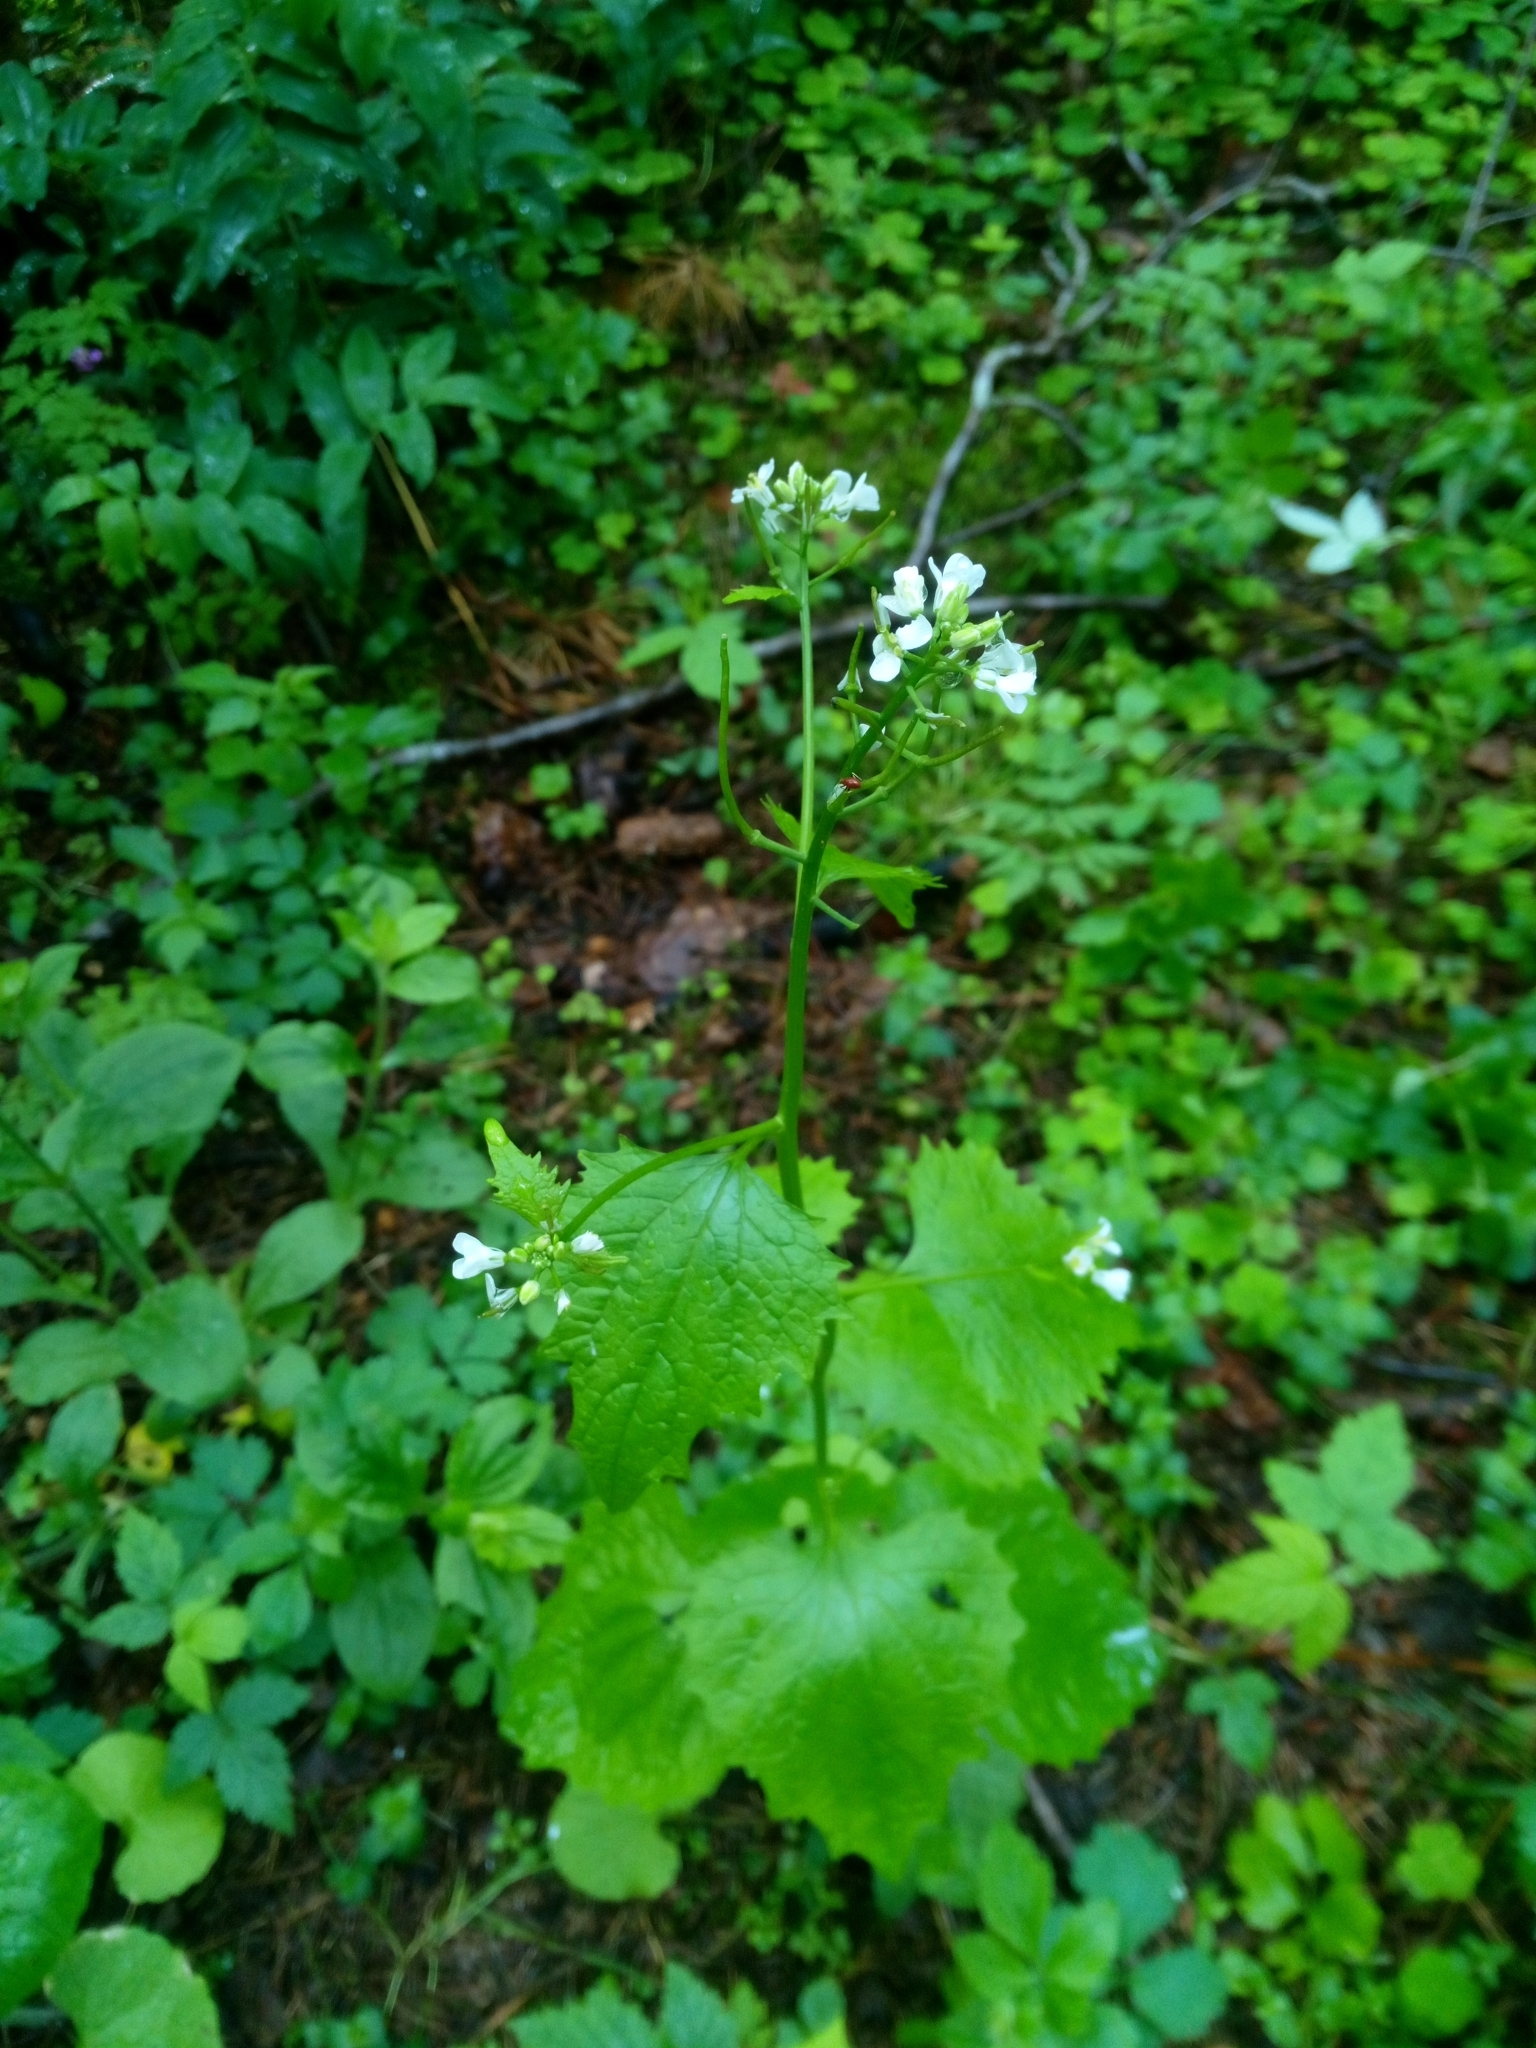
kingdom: Plantae
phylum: Tracheophyta
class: Magnoliopsida
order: Brassicales
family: Brassicaceae
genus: Alliaria
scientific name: Alliaria petiolata
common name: Garlic mustard
